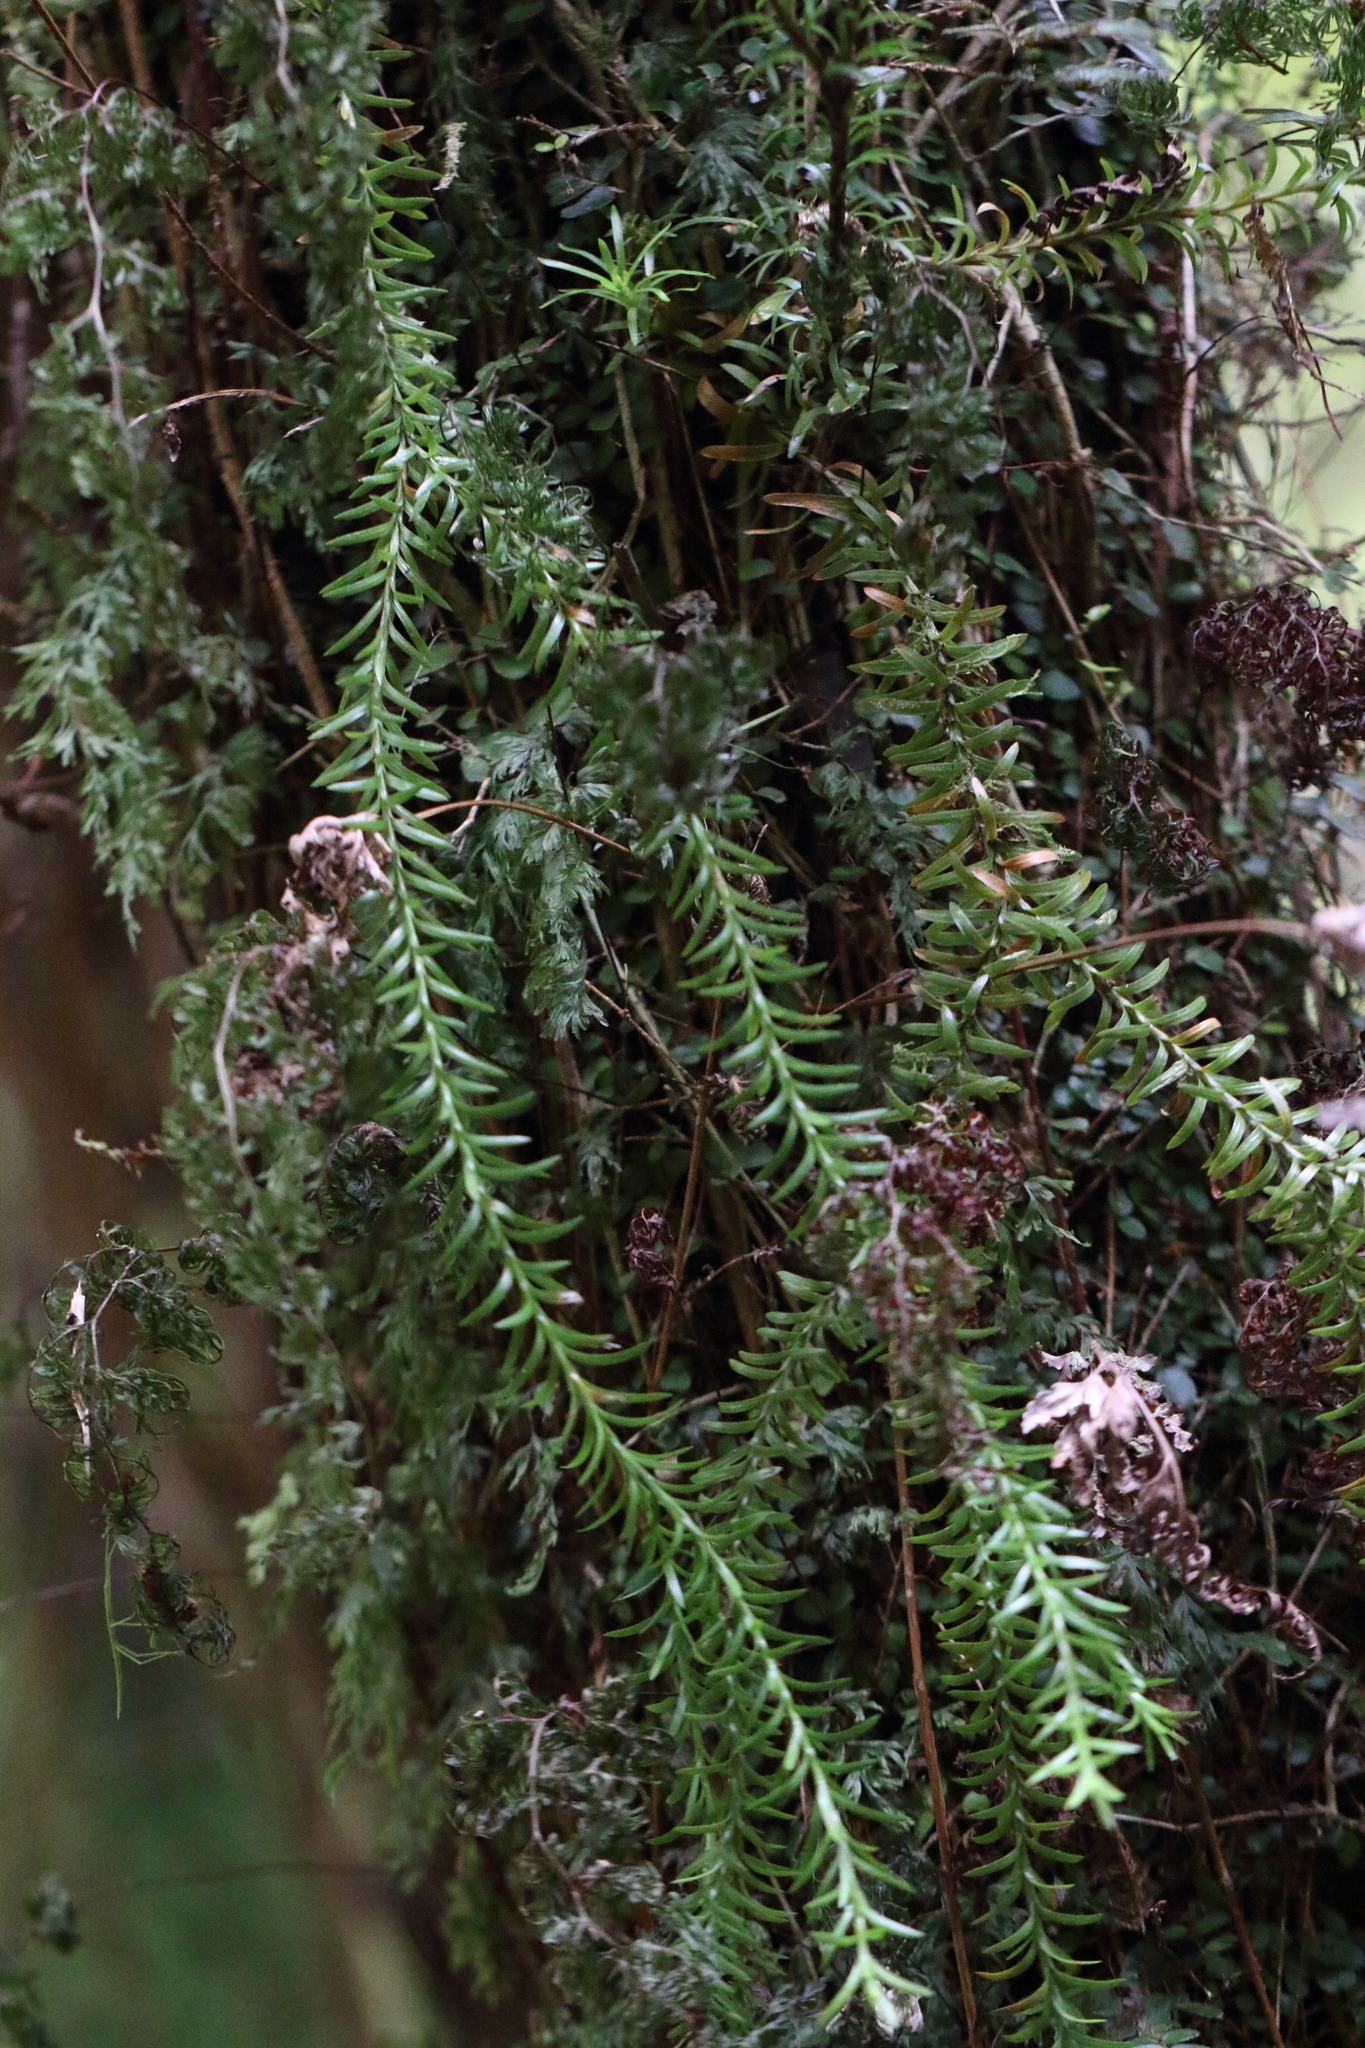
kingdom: Plantae
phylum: Tracheophyta
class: Lycopodiopsida
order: Lycopodiales
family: Lycopodiaceae
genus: Phlegmariurus
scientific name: Phlegmariurus varius
